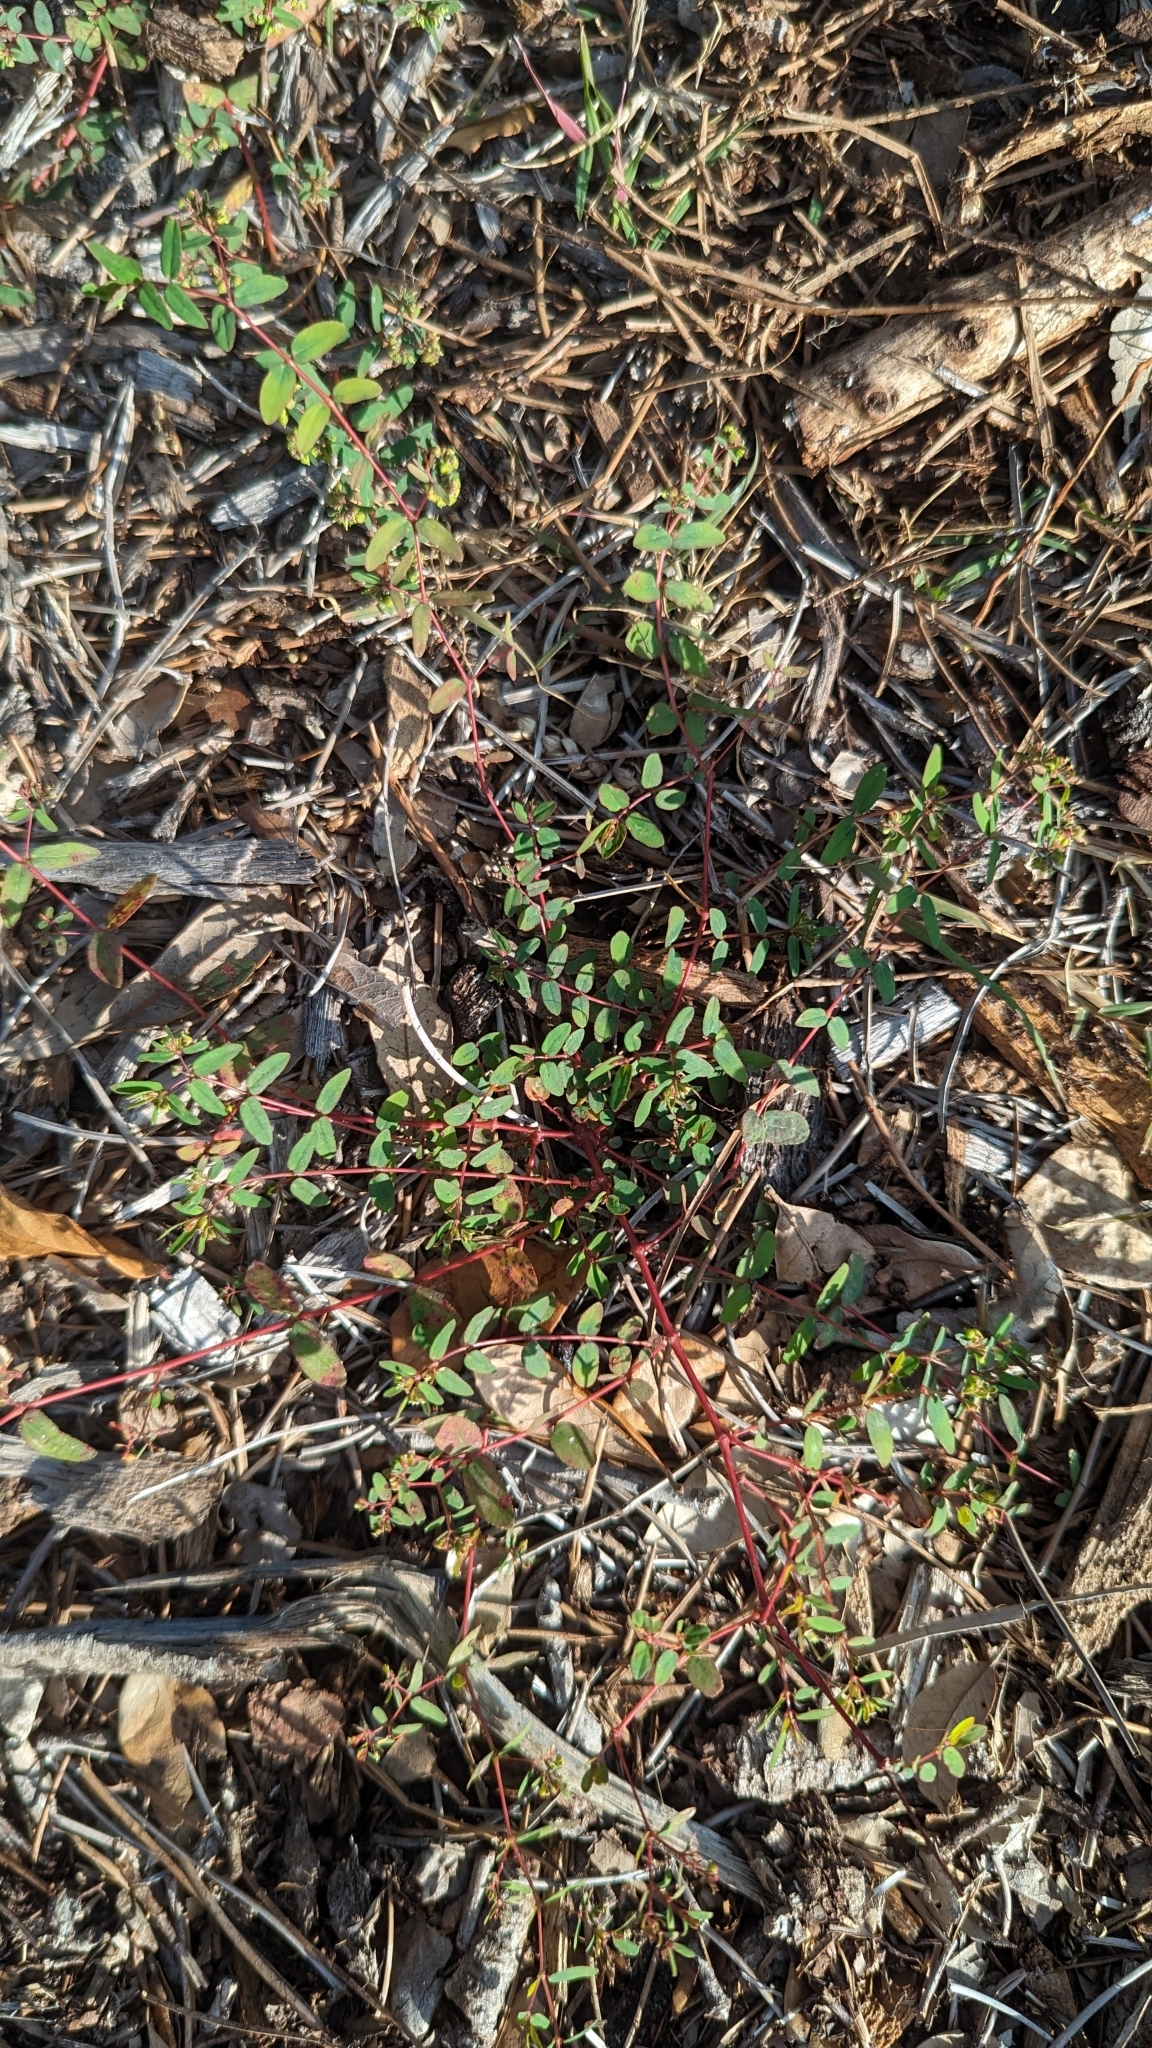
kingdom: Plantae
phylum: Tracheophyta
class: Magnoliopsida
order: Malpighiales
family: Euphorbiaceae
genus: Euphorbia
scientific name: Euphorbia hyssopifolia
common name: Hyssopleaf sandmat
